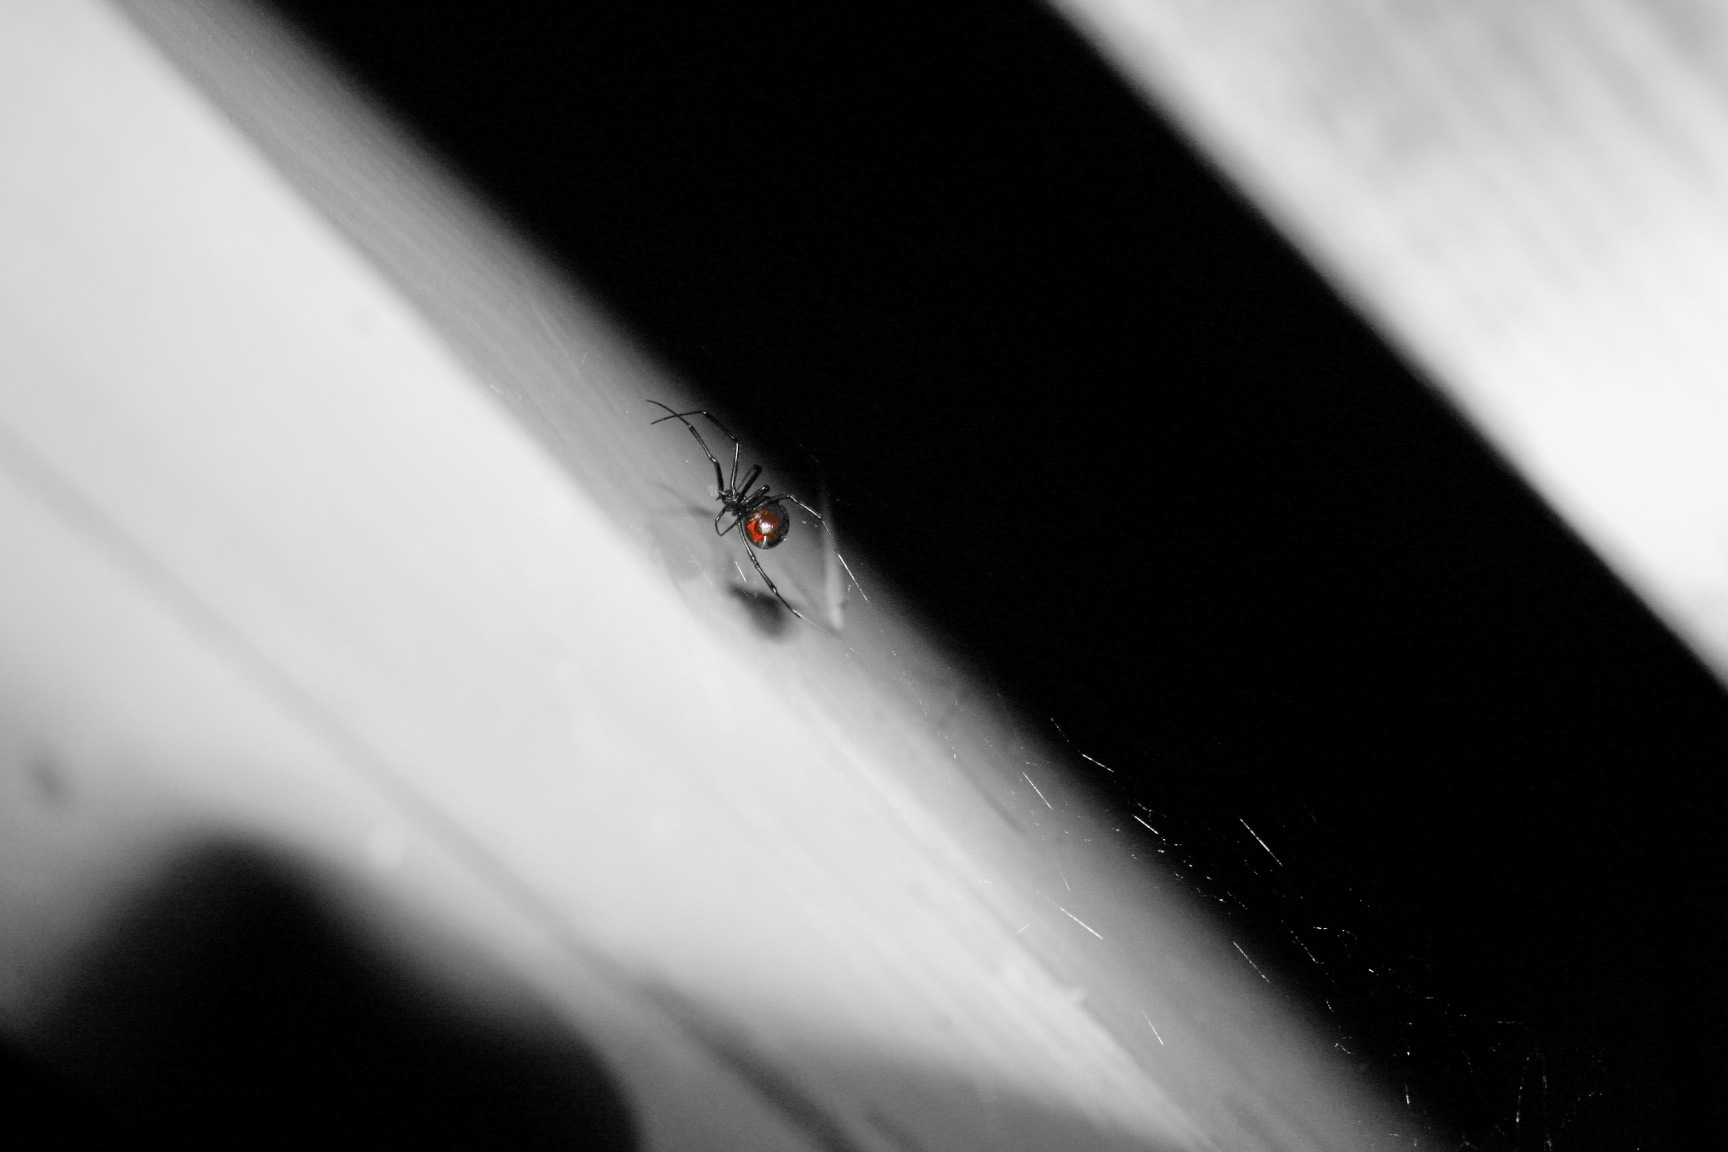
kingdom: Animalia
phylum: Arthropoda
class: Arachnida
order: Araneae
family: Theridiidae
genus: Latrodectus
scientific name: Latrodectus hesperus
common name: Western black widow
